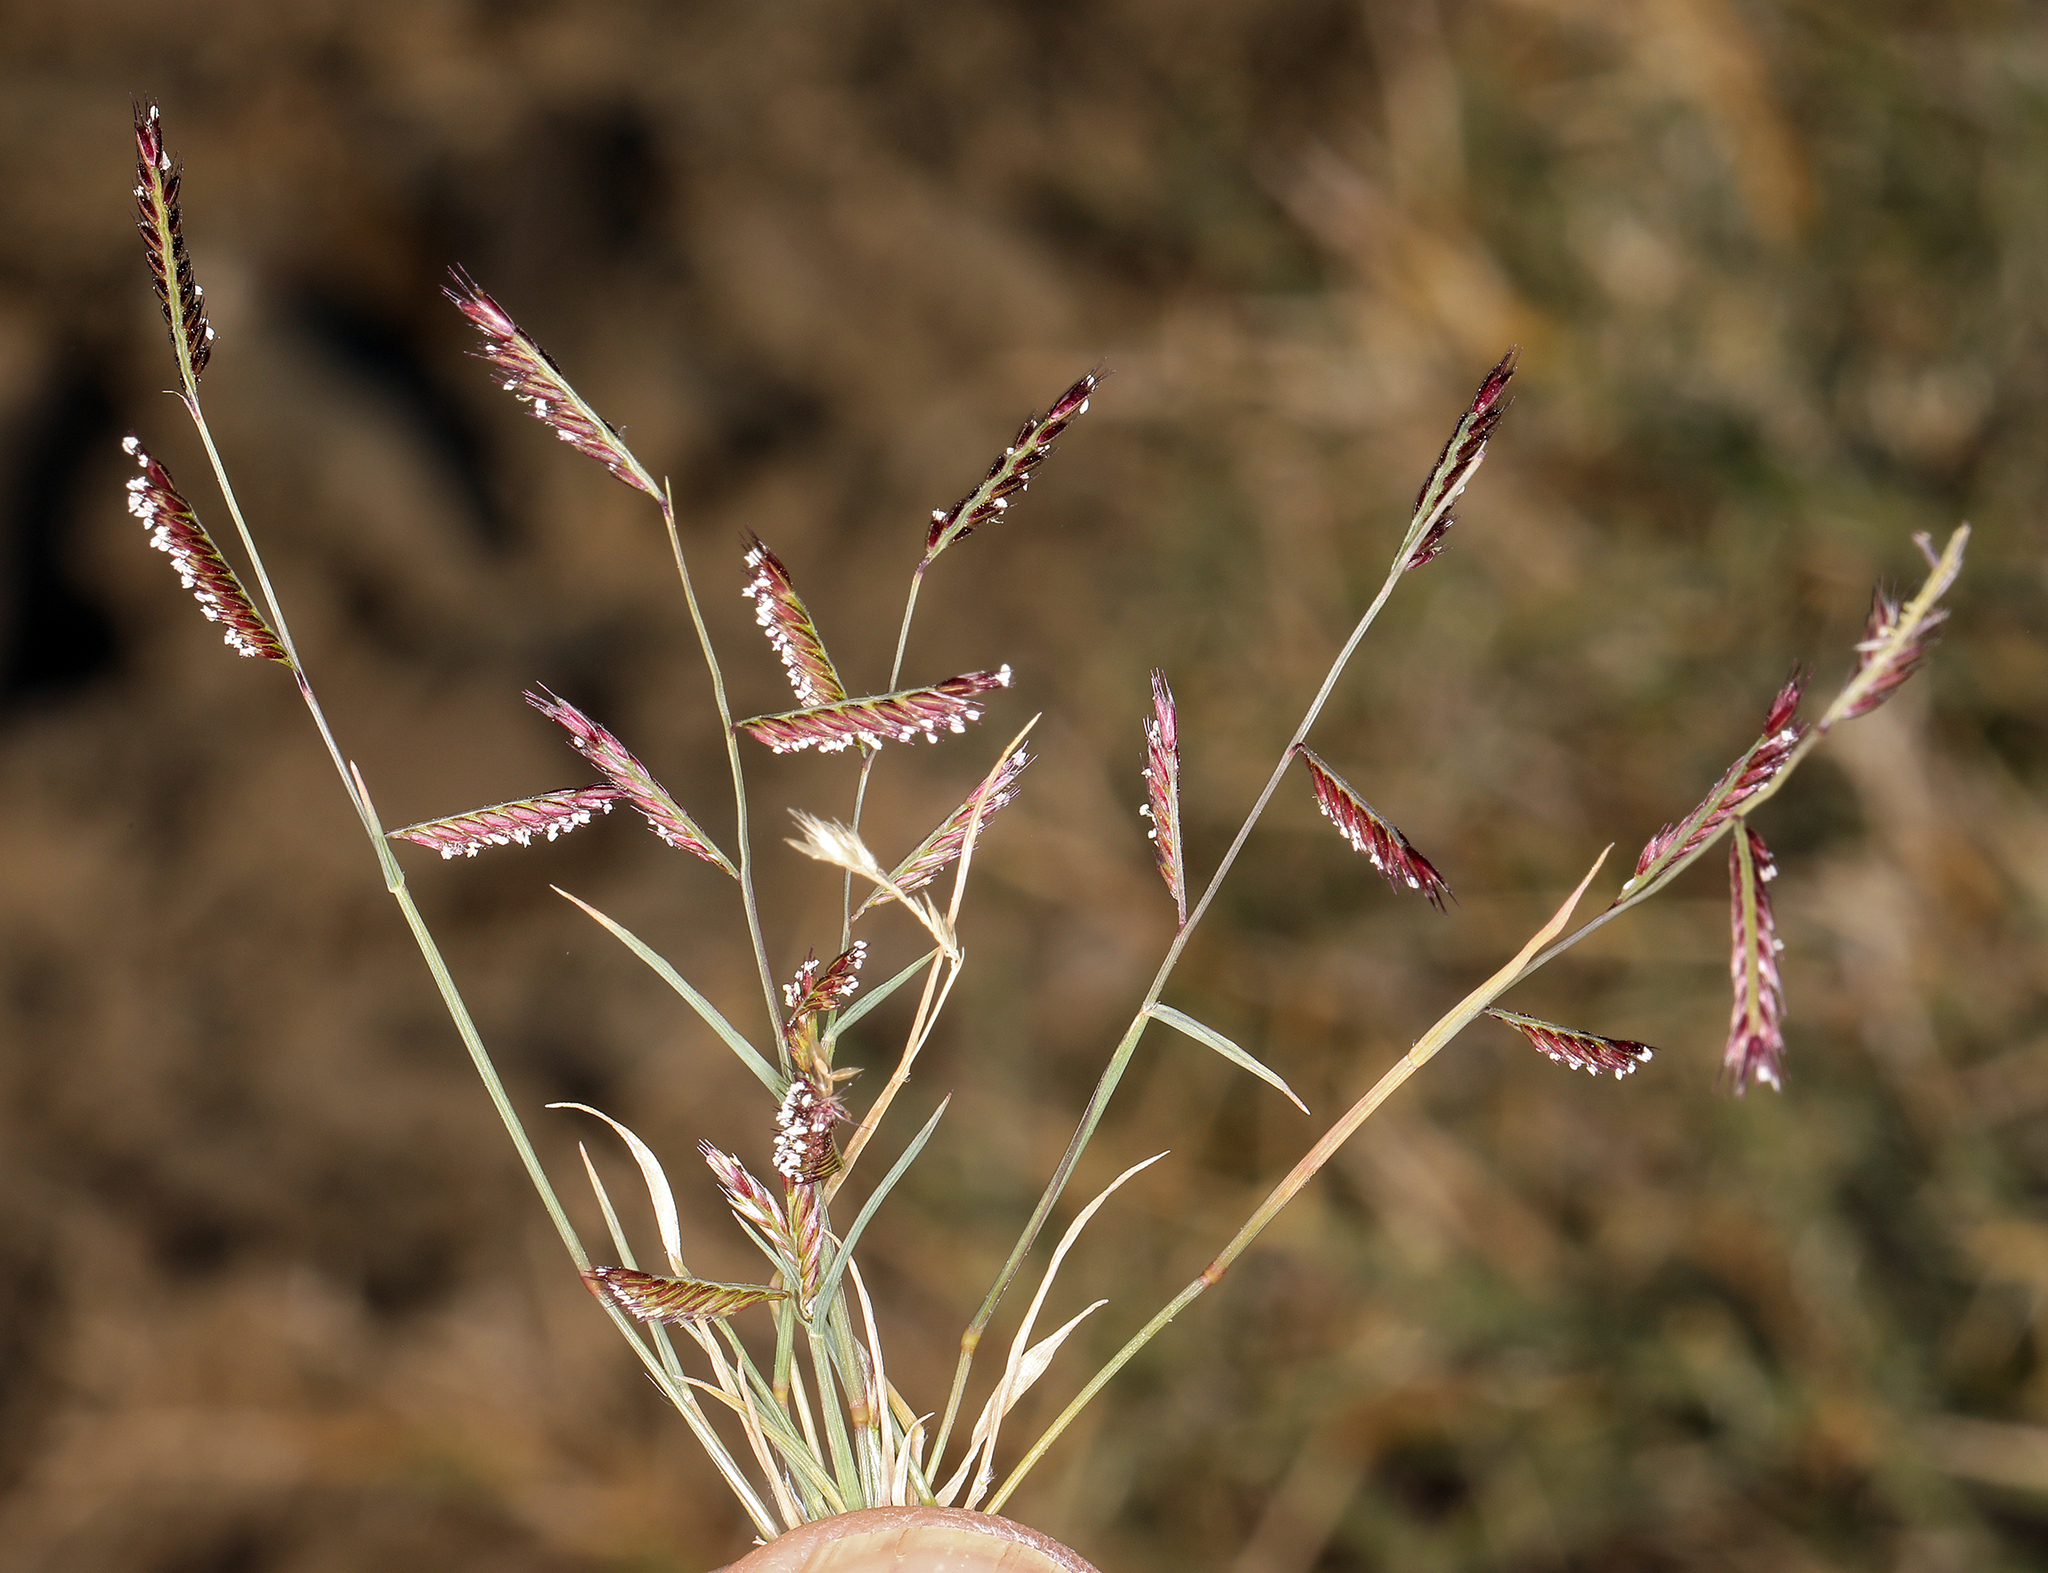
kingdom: Plantae
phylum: Tracheophyta
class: Liliopsida
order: Poales
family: Poaceae
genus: Bouteloua
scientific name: Bouteloua barbata
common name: Six-weeks grama
